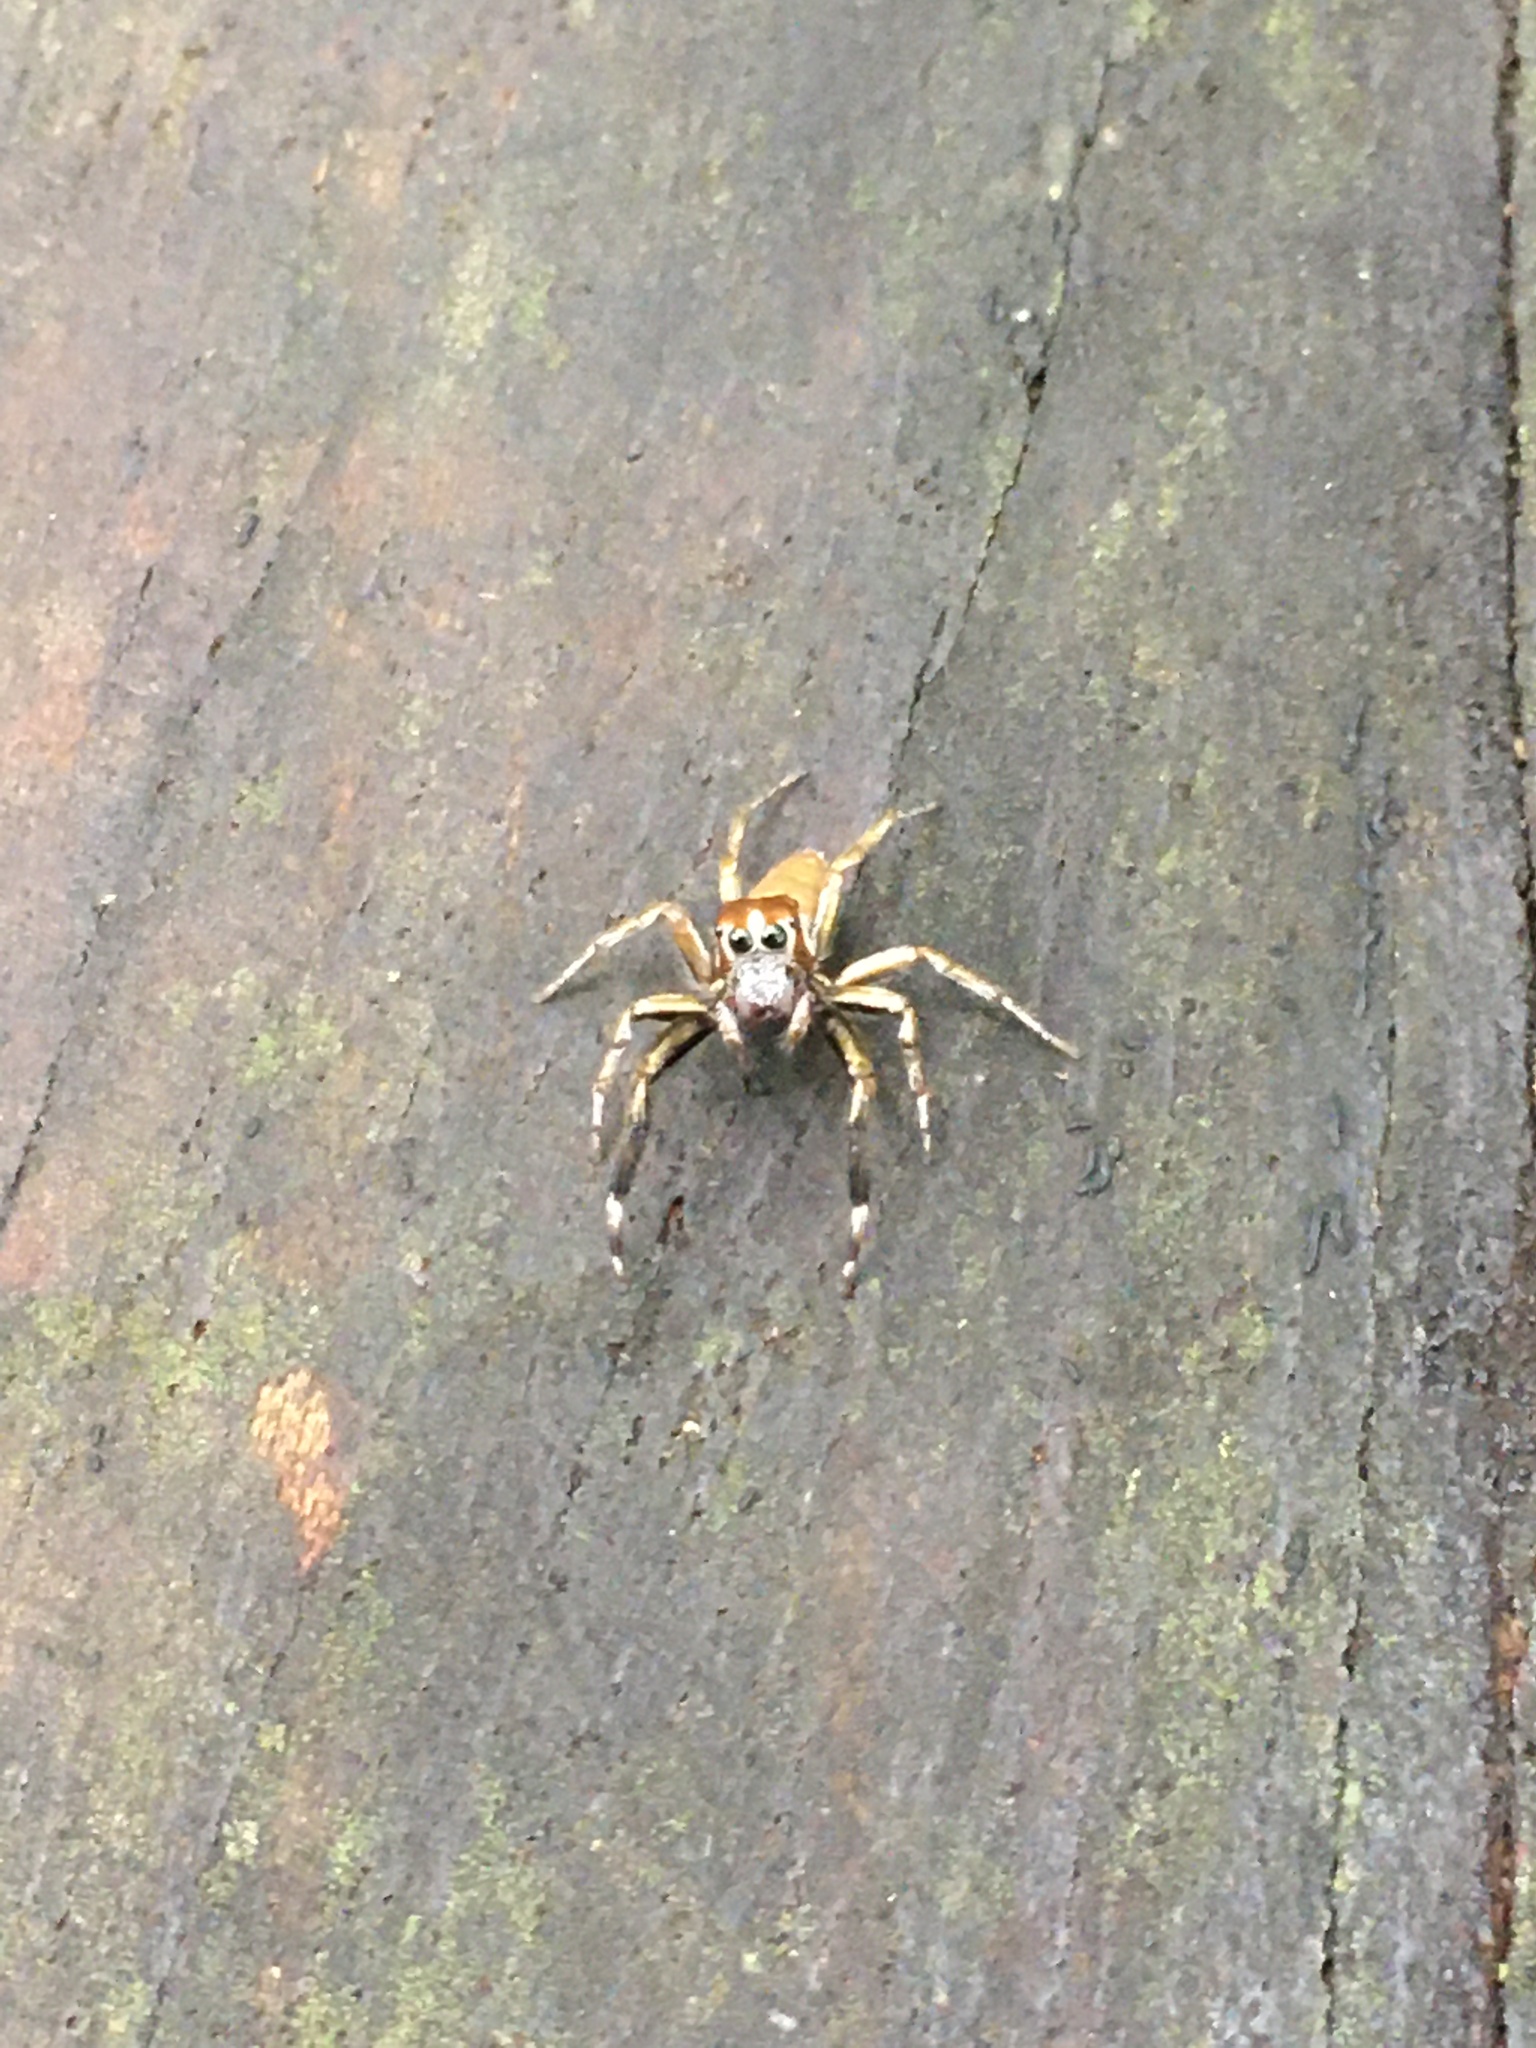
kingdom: Animalia
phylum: Arthropoda
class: Arachnida
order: Araneae
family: Salticidae
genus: Philira
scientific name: Philira micans
